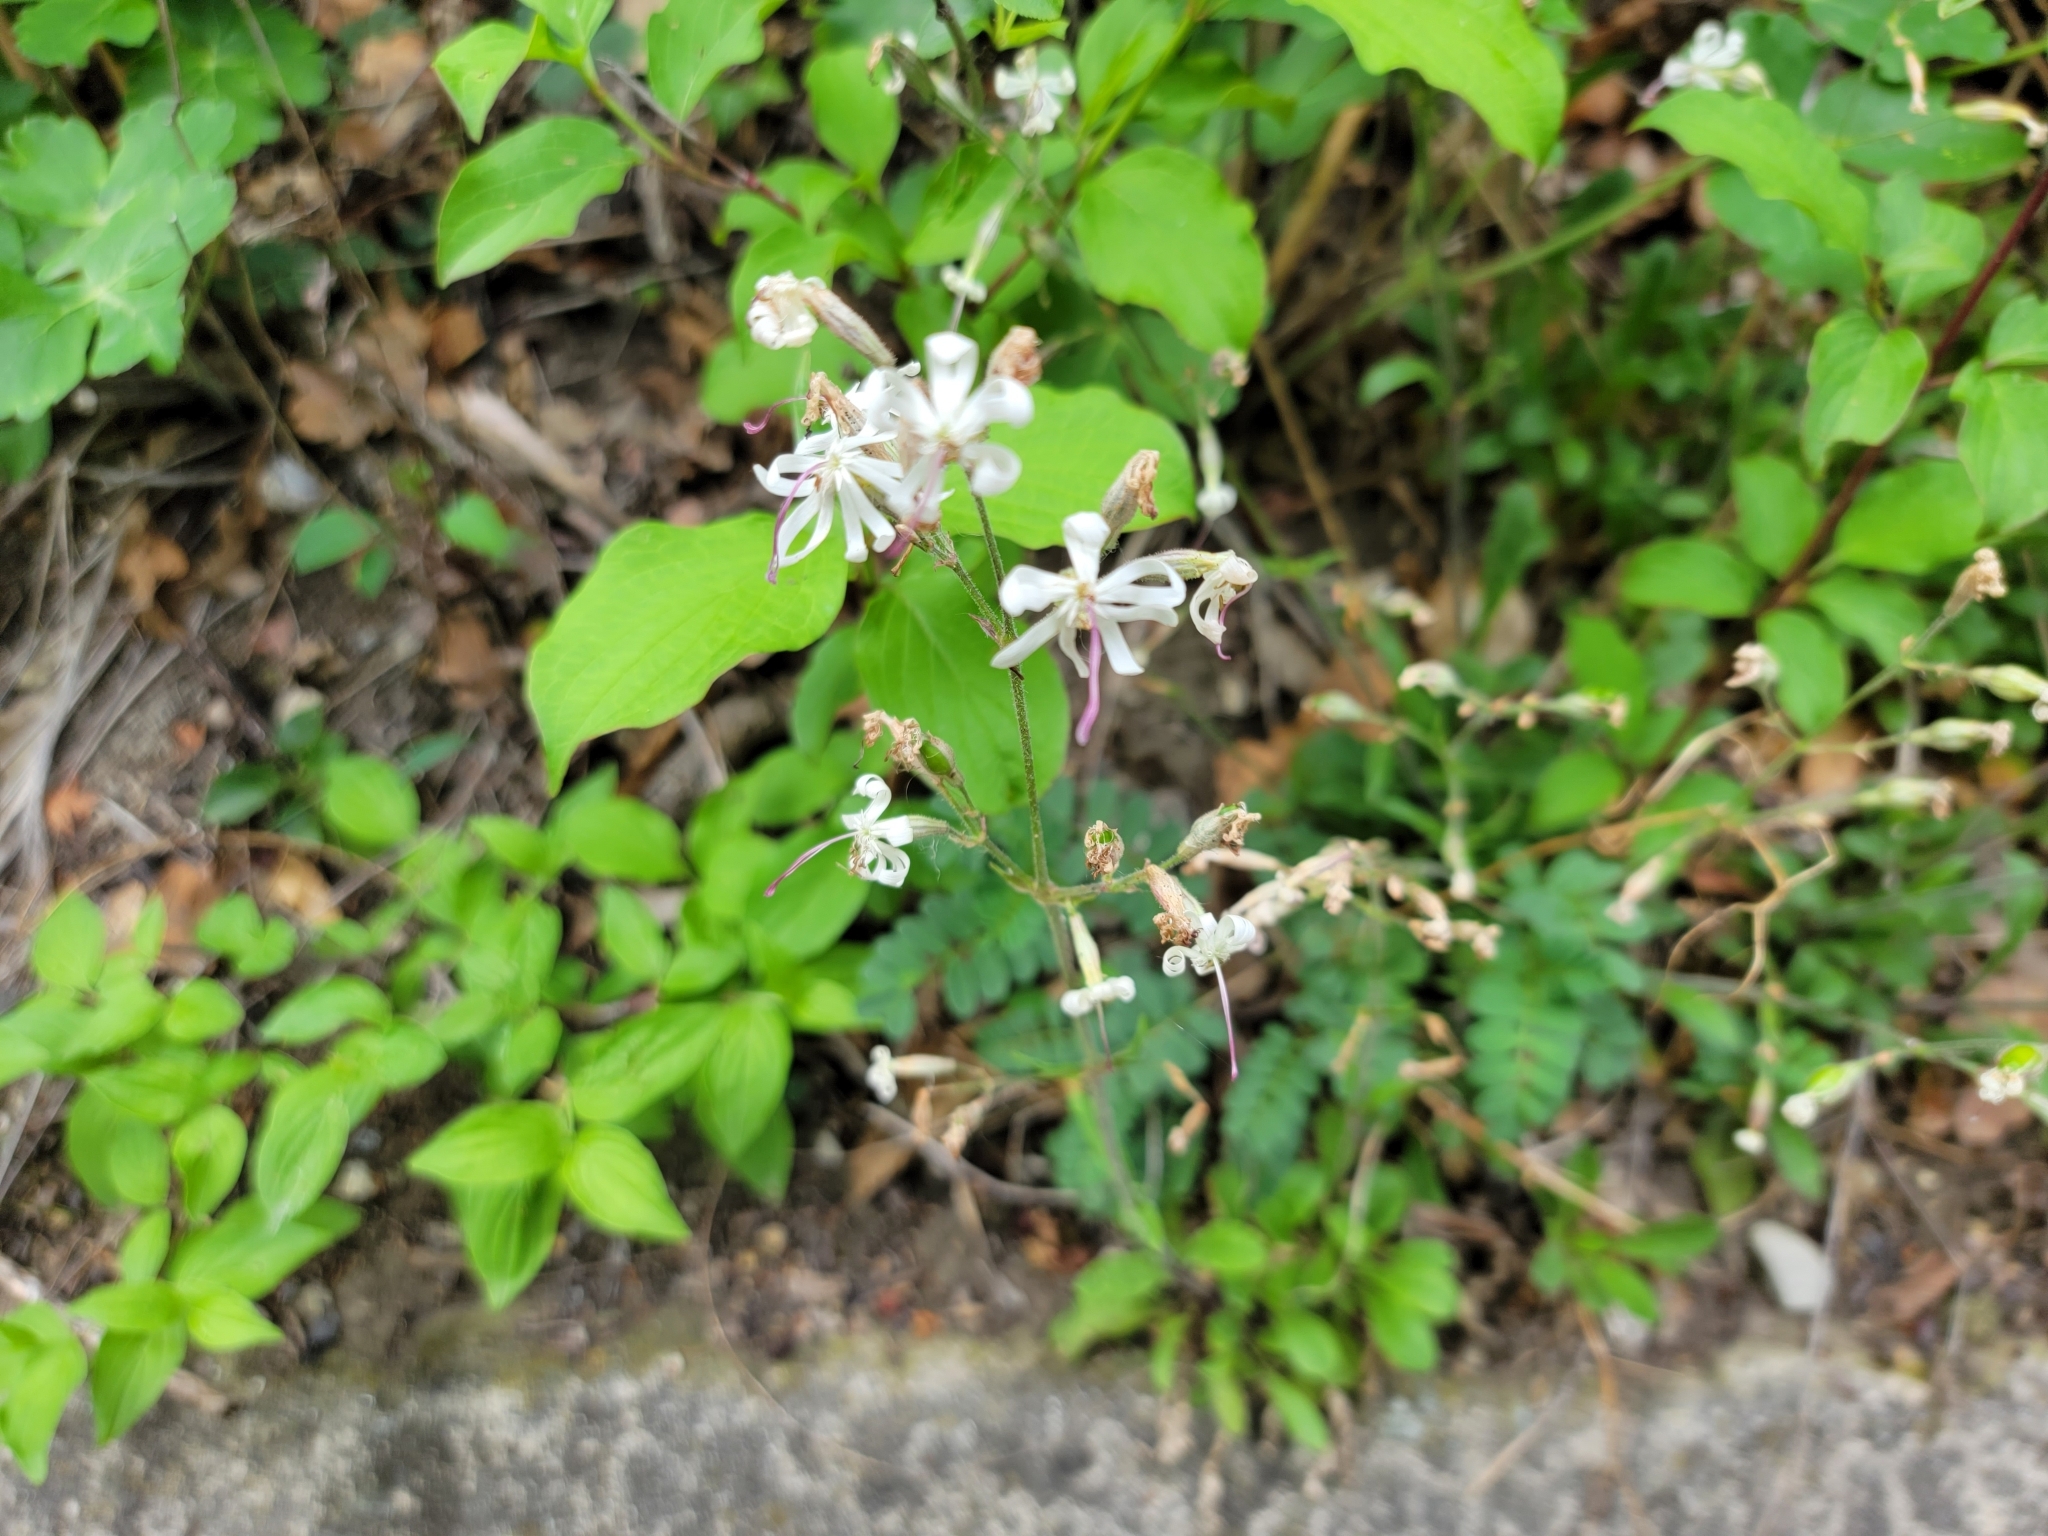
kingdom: Plantae
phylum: Tracheophyta
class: Magnoliopsida
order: Caryophyllales
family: Caryophyllaceae
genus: Silene
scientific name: Silene nutans
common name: Nottingham catchfly
